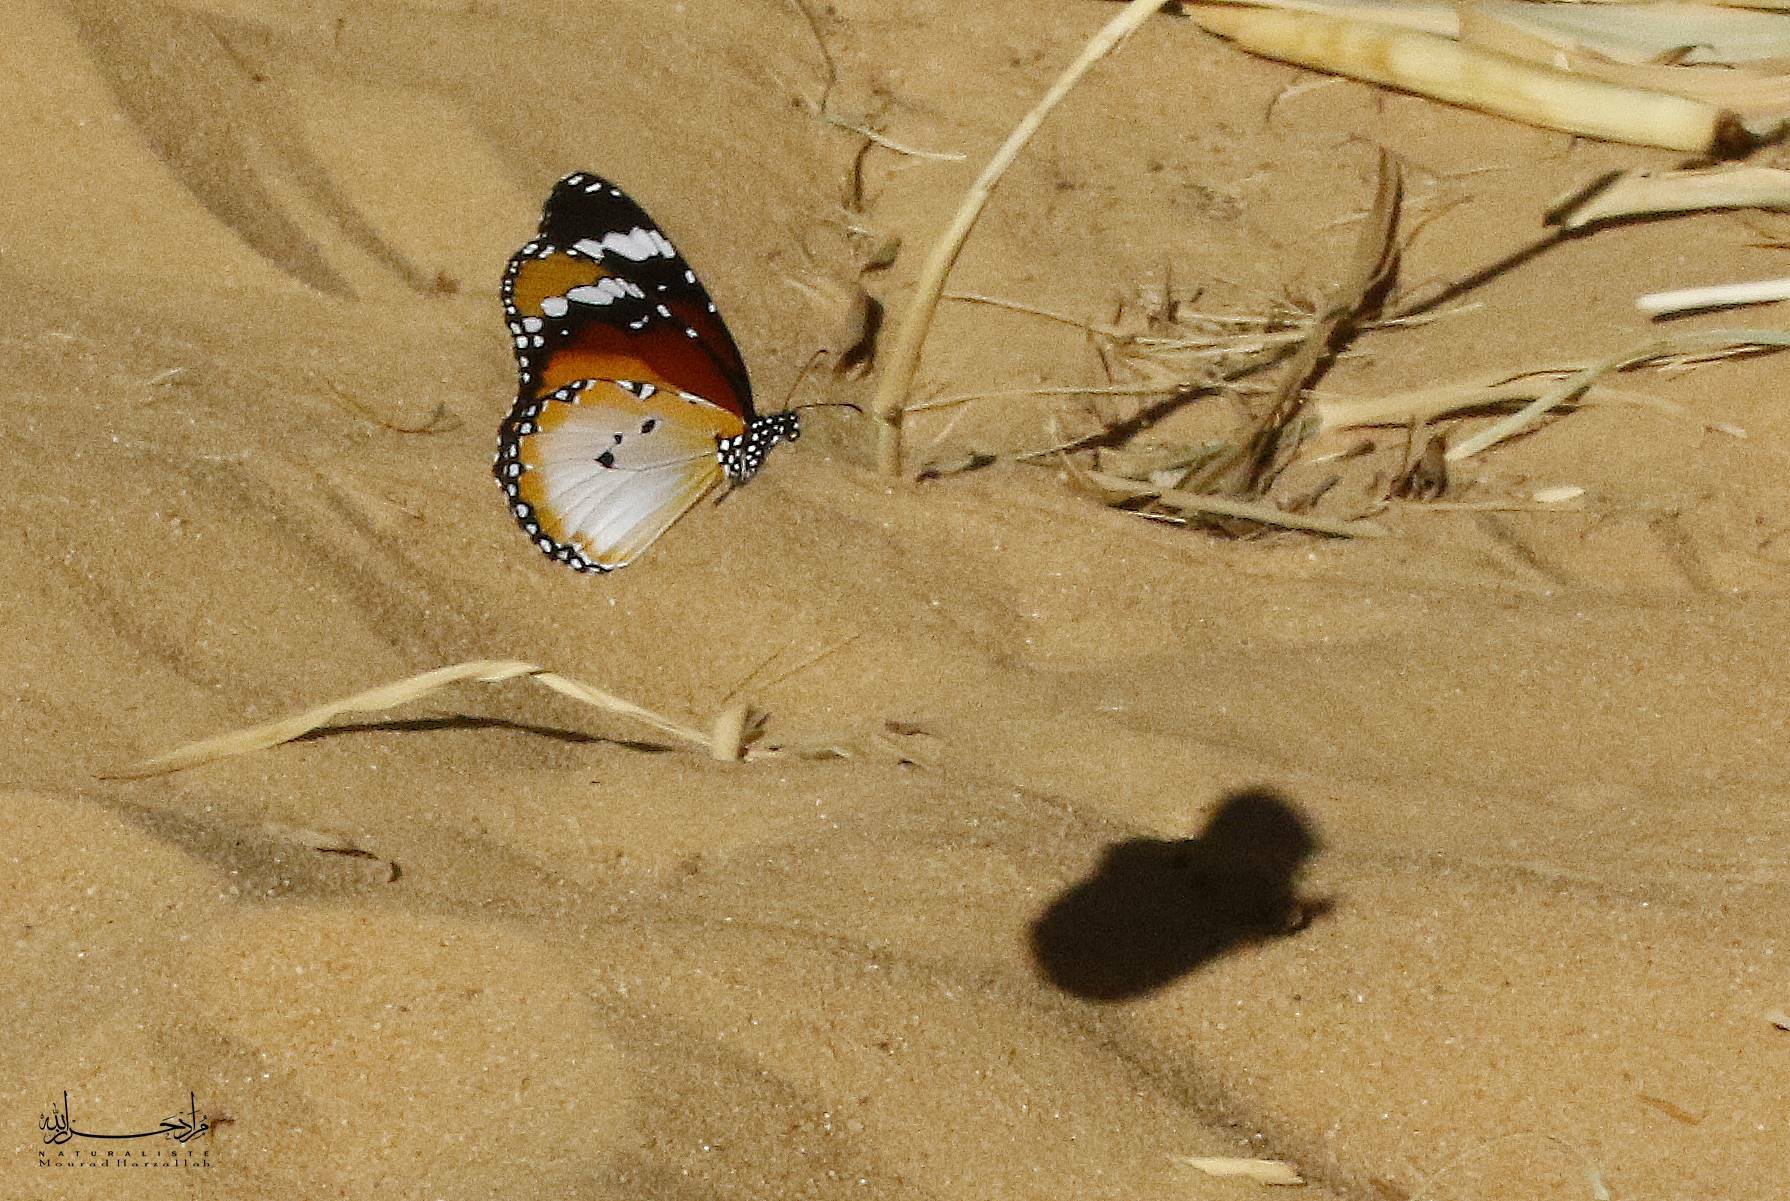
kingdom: Animalia
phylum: Arthropoda
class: Insecta
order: Lepidoptera
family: Nymphalidae
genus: Danaus
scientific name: Danaus chrysippus
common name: Plain tiger
